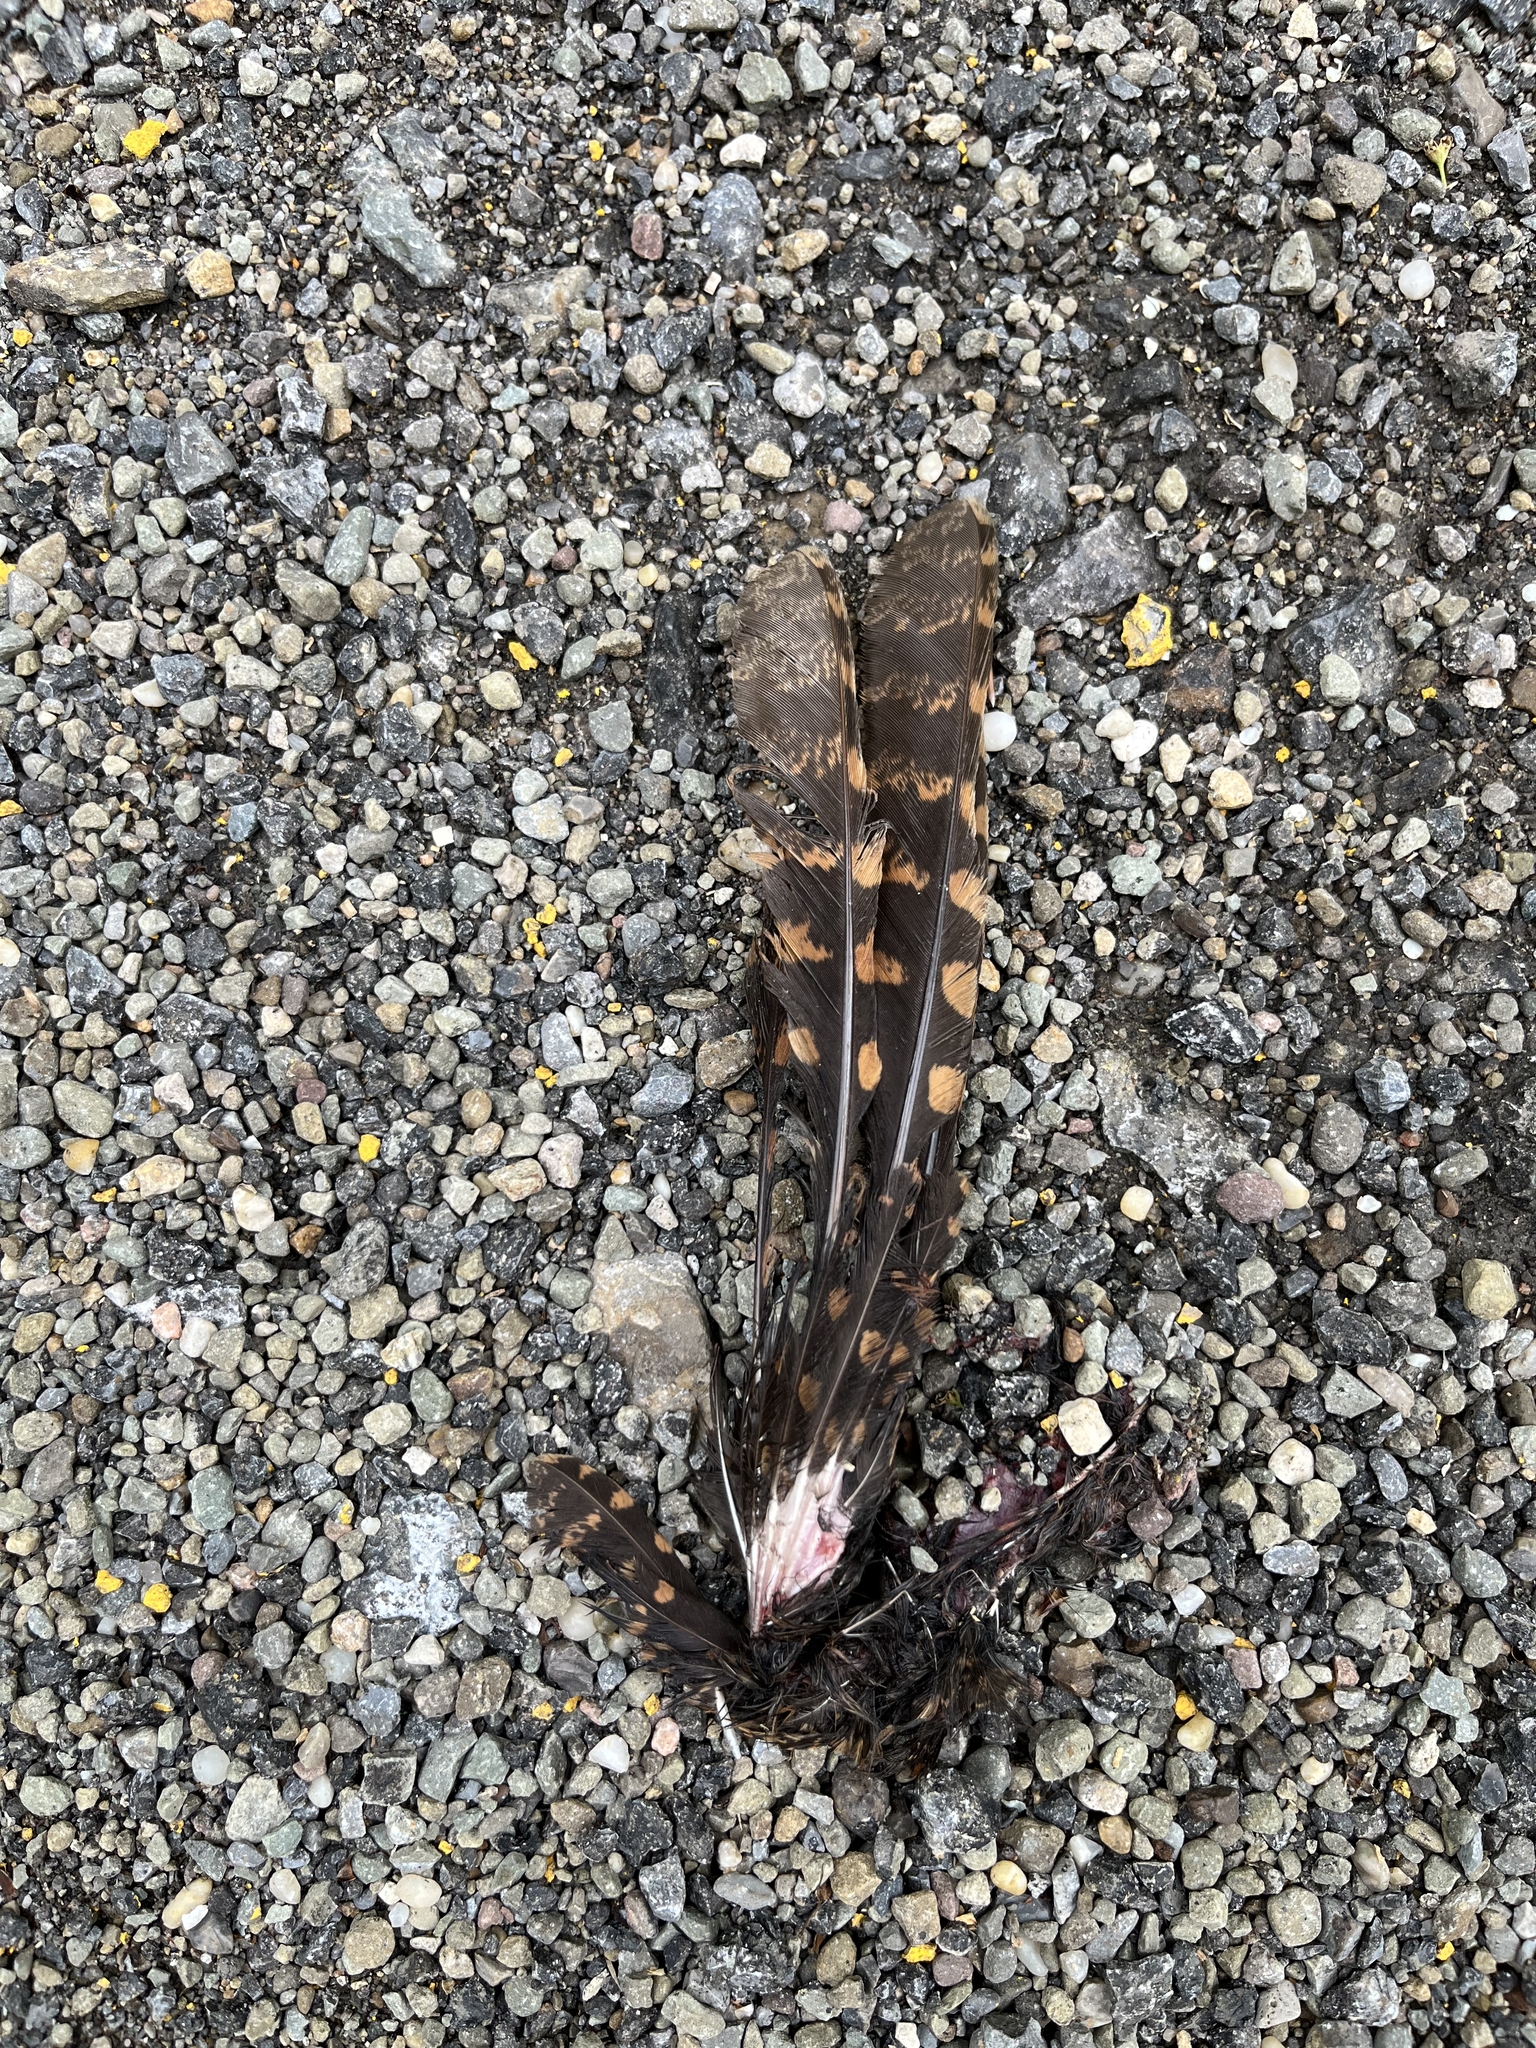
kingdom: Animalia
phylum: Chordata
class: Aves
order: Caprimulgiformes
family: Caprimulgidae
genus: Antrostomus
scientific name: Antrostomus vociferus
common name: Eastern whip-poor-will
